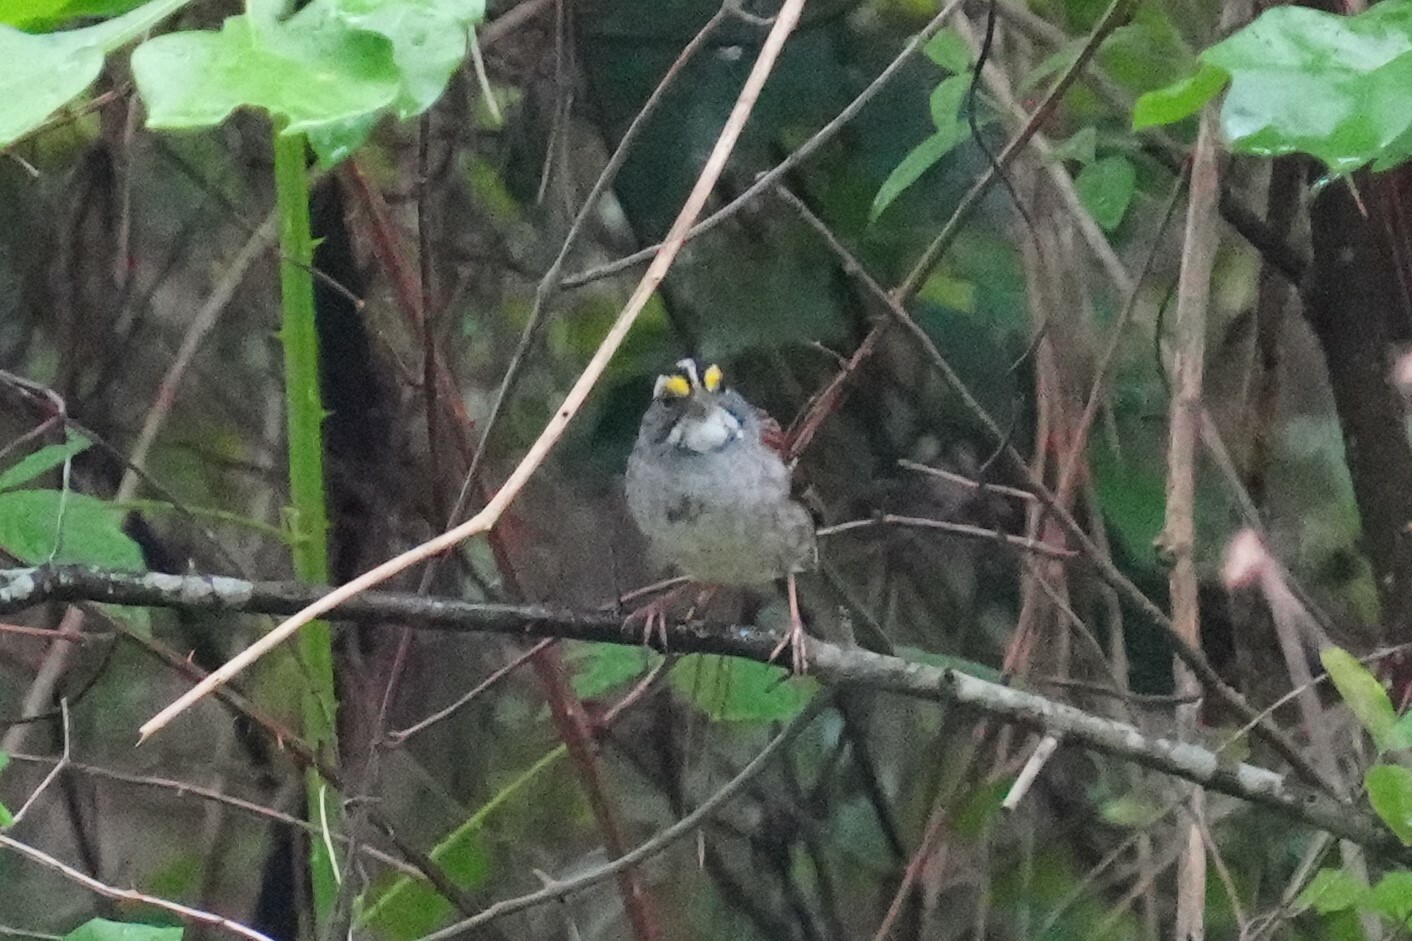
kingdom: Animalia
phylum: Chordata
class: Aves
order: Passeriformes
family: Passerellidae
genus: Zonotrichia
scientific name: Zonotrichia albicollis
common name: White-throated sparrow
